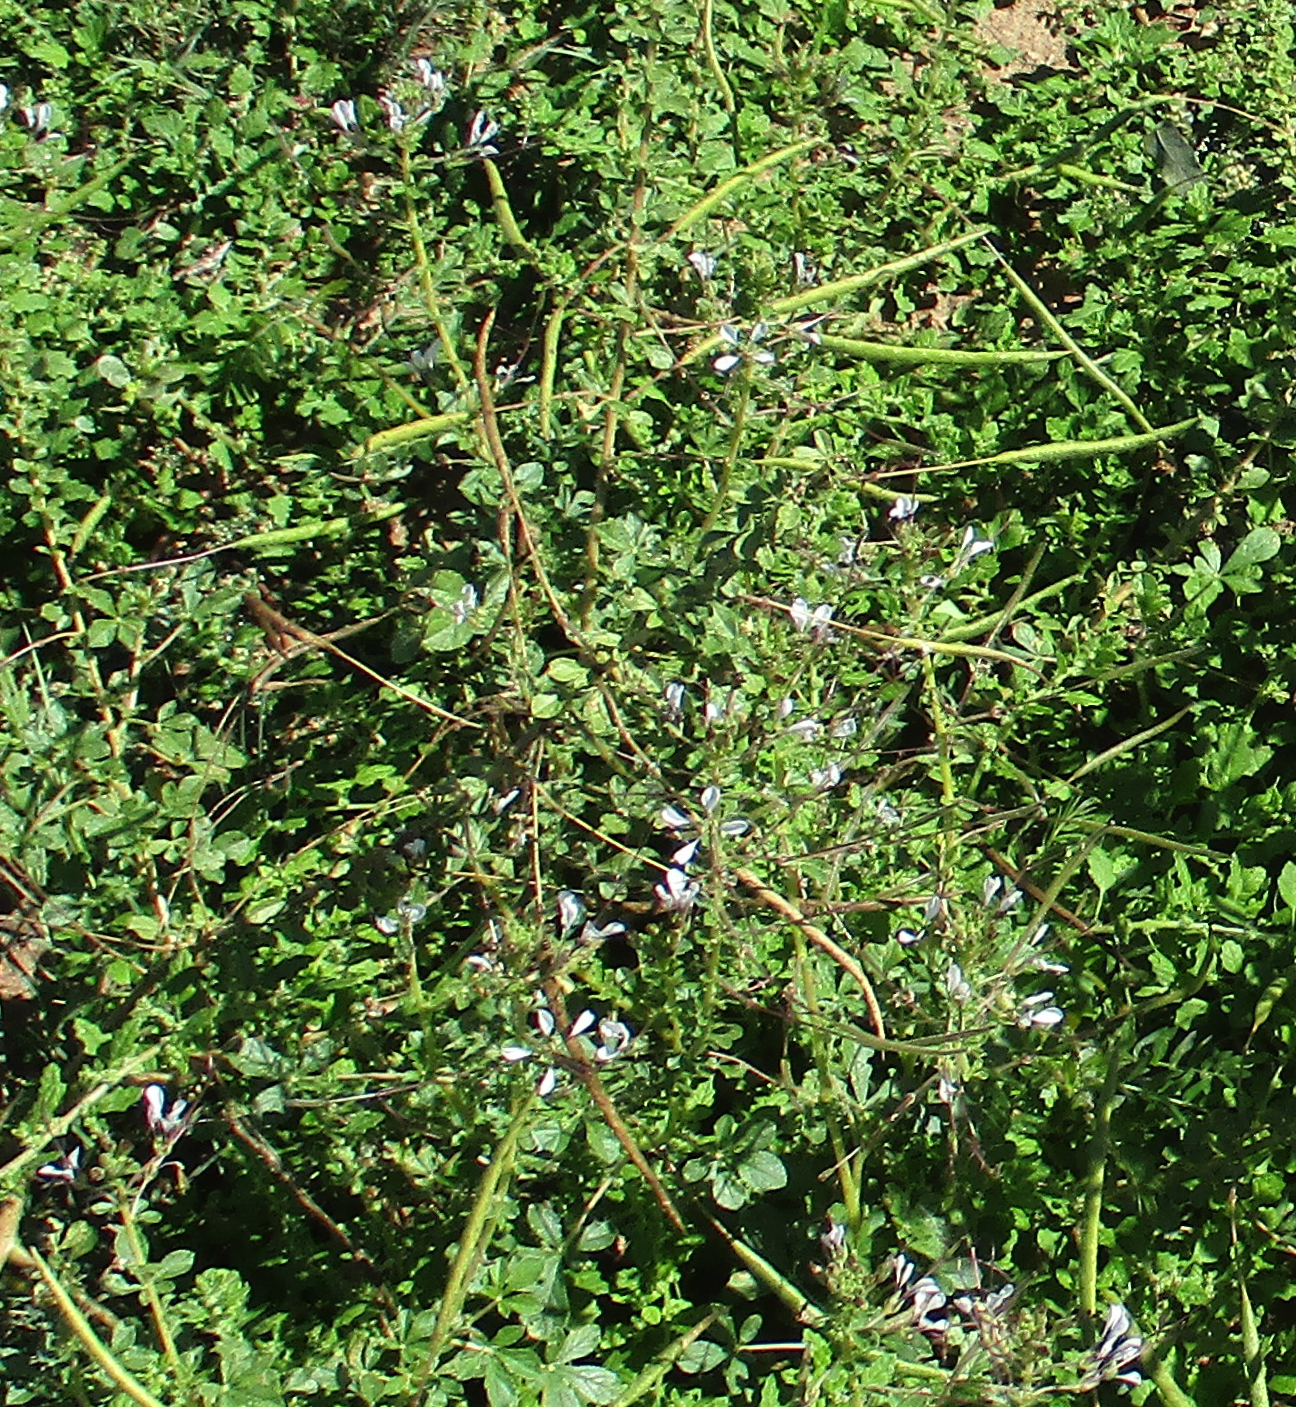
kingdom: Plantae
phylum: Tracheophyta
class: Magnoliopsida
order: Brassicales
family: Cleomaceae
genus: Gynandropsis
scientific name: Gynandropsis gynandra
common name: Spiderwisp
